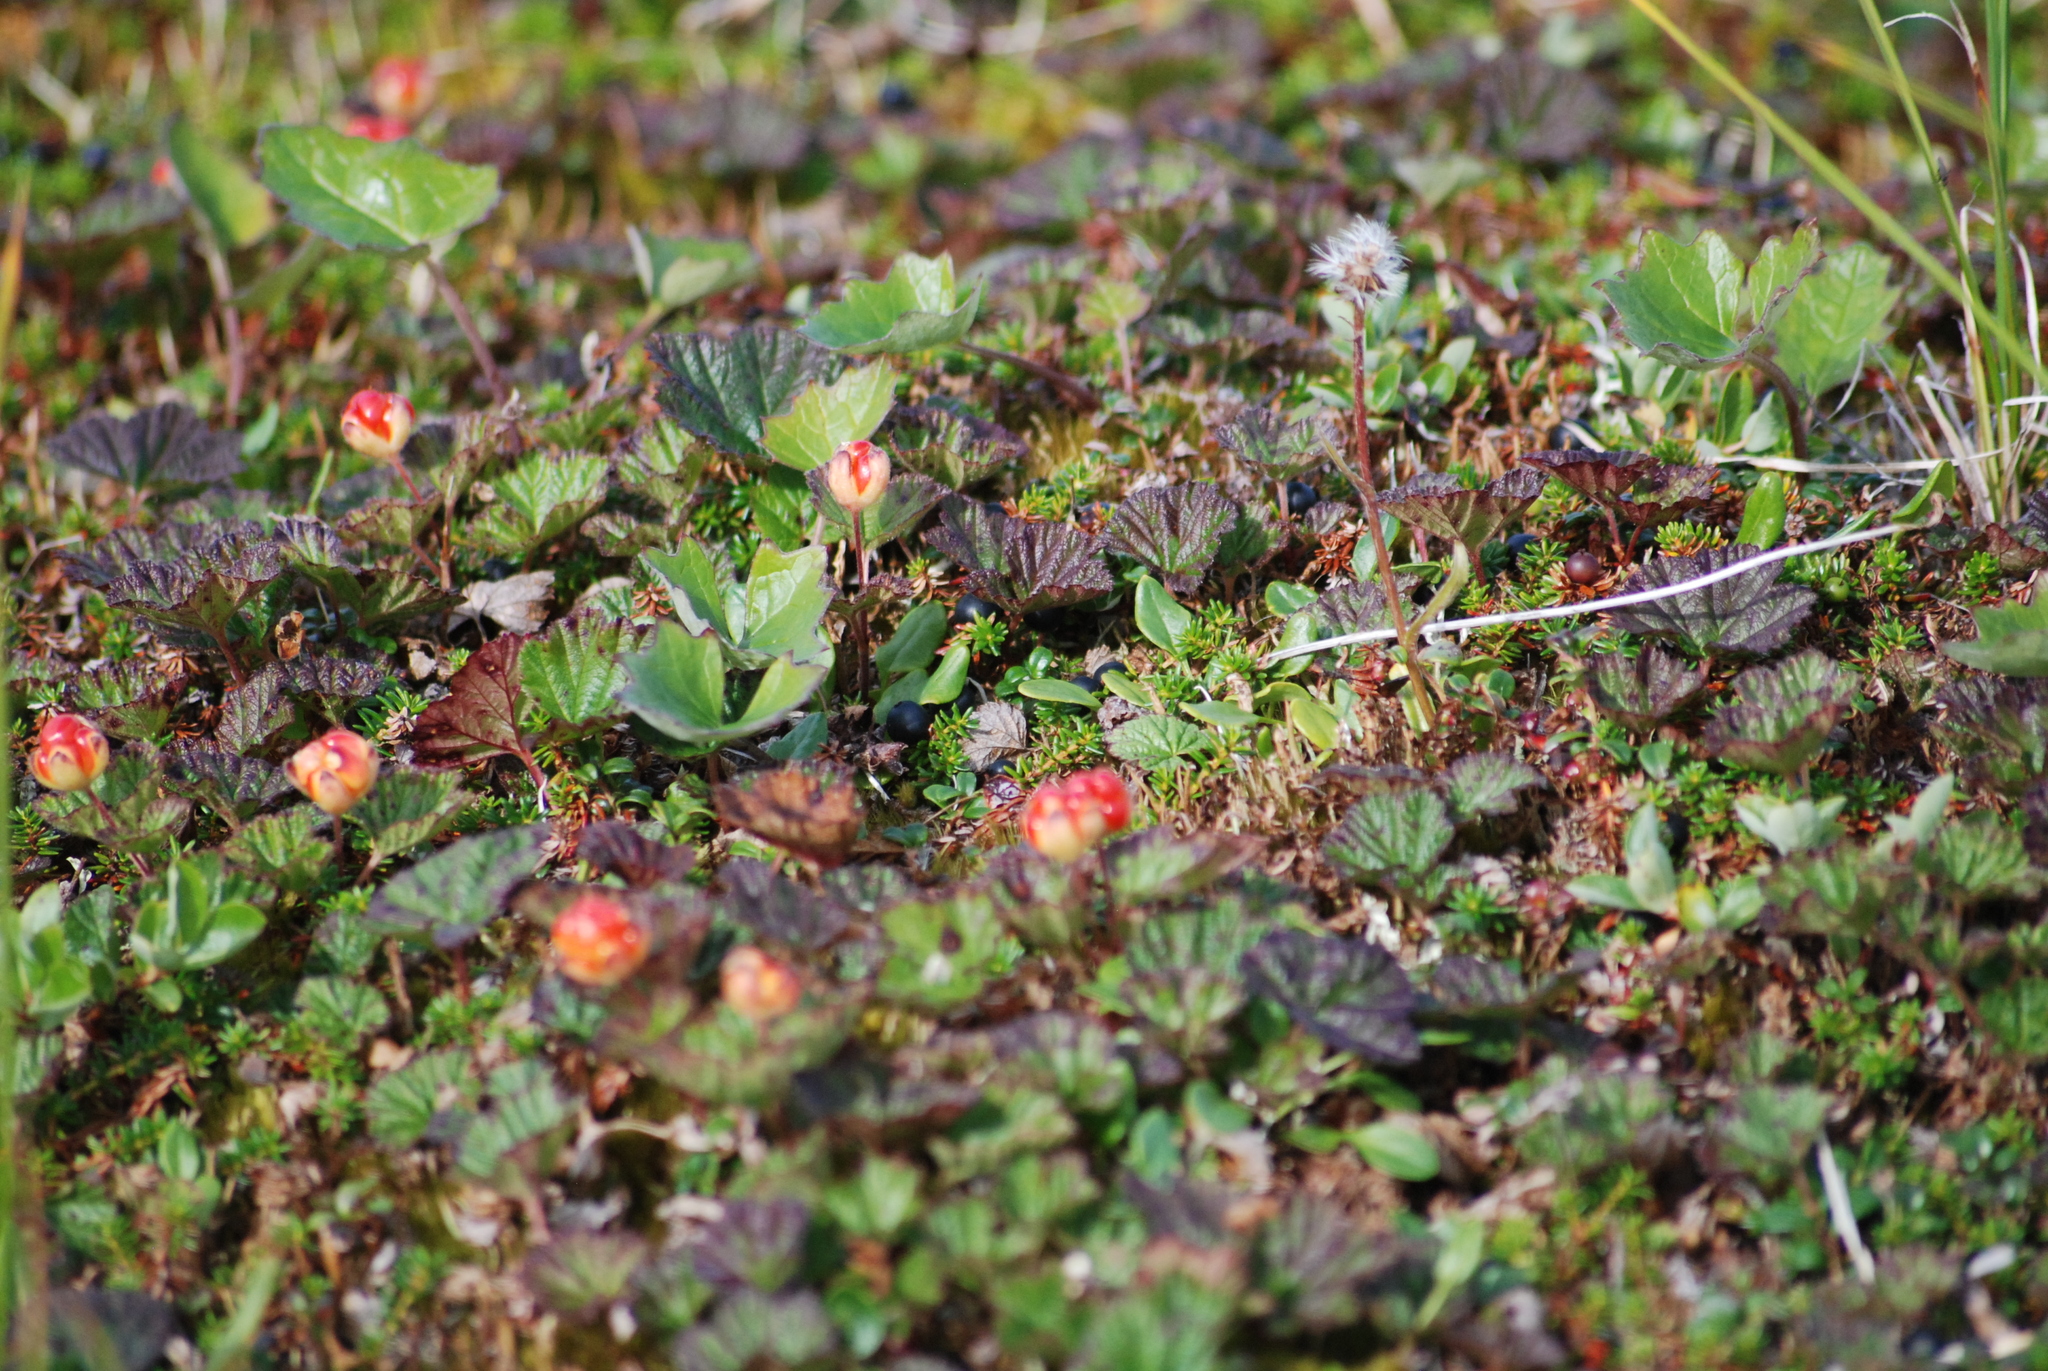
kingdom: Plantae
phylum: Tracheophyta
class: Magnoliopsida
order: Rosales
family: Rosaceae
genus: Rubus
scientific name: Rubus chamaemorus
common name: Cloudberry
